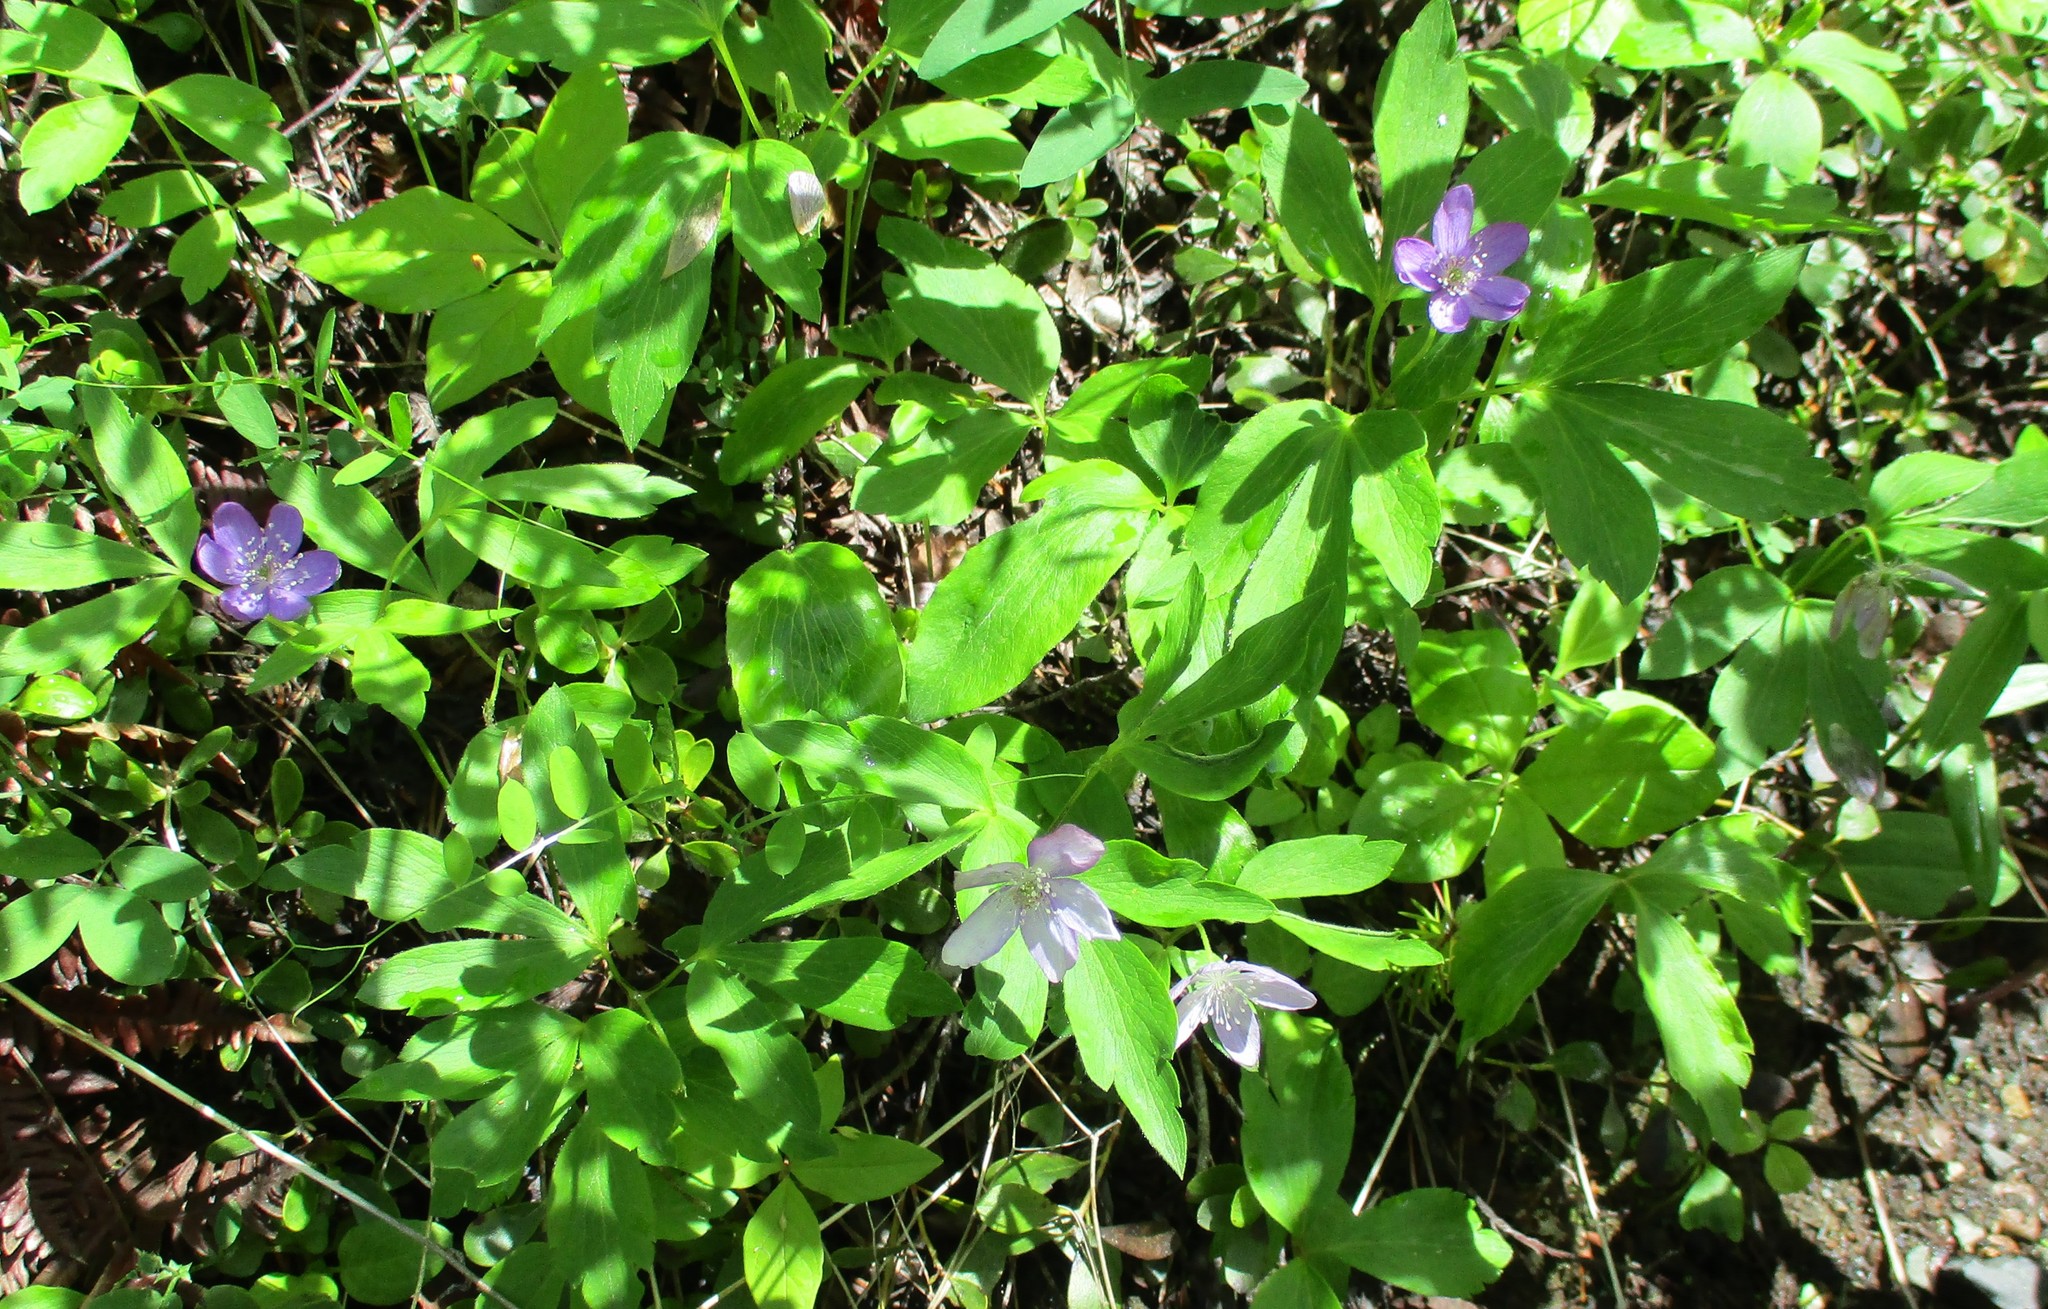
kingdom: Plantae
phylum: Tracheophyta
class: Magnoliopsida
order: Ranunculales
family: Ranunculaceae
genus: Anemone
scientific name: Anemone oregana
